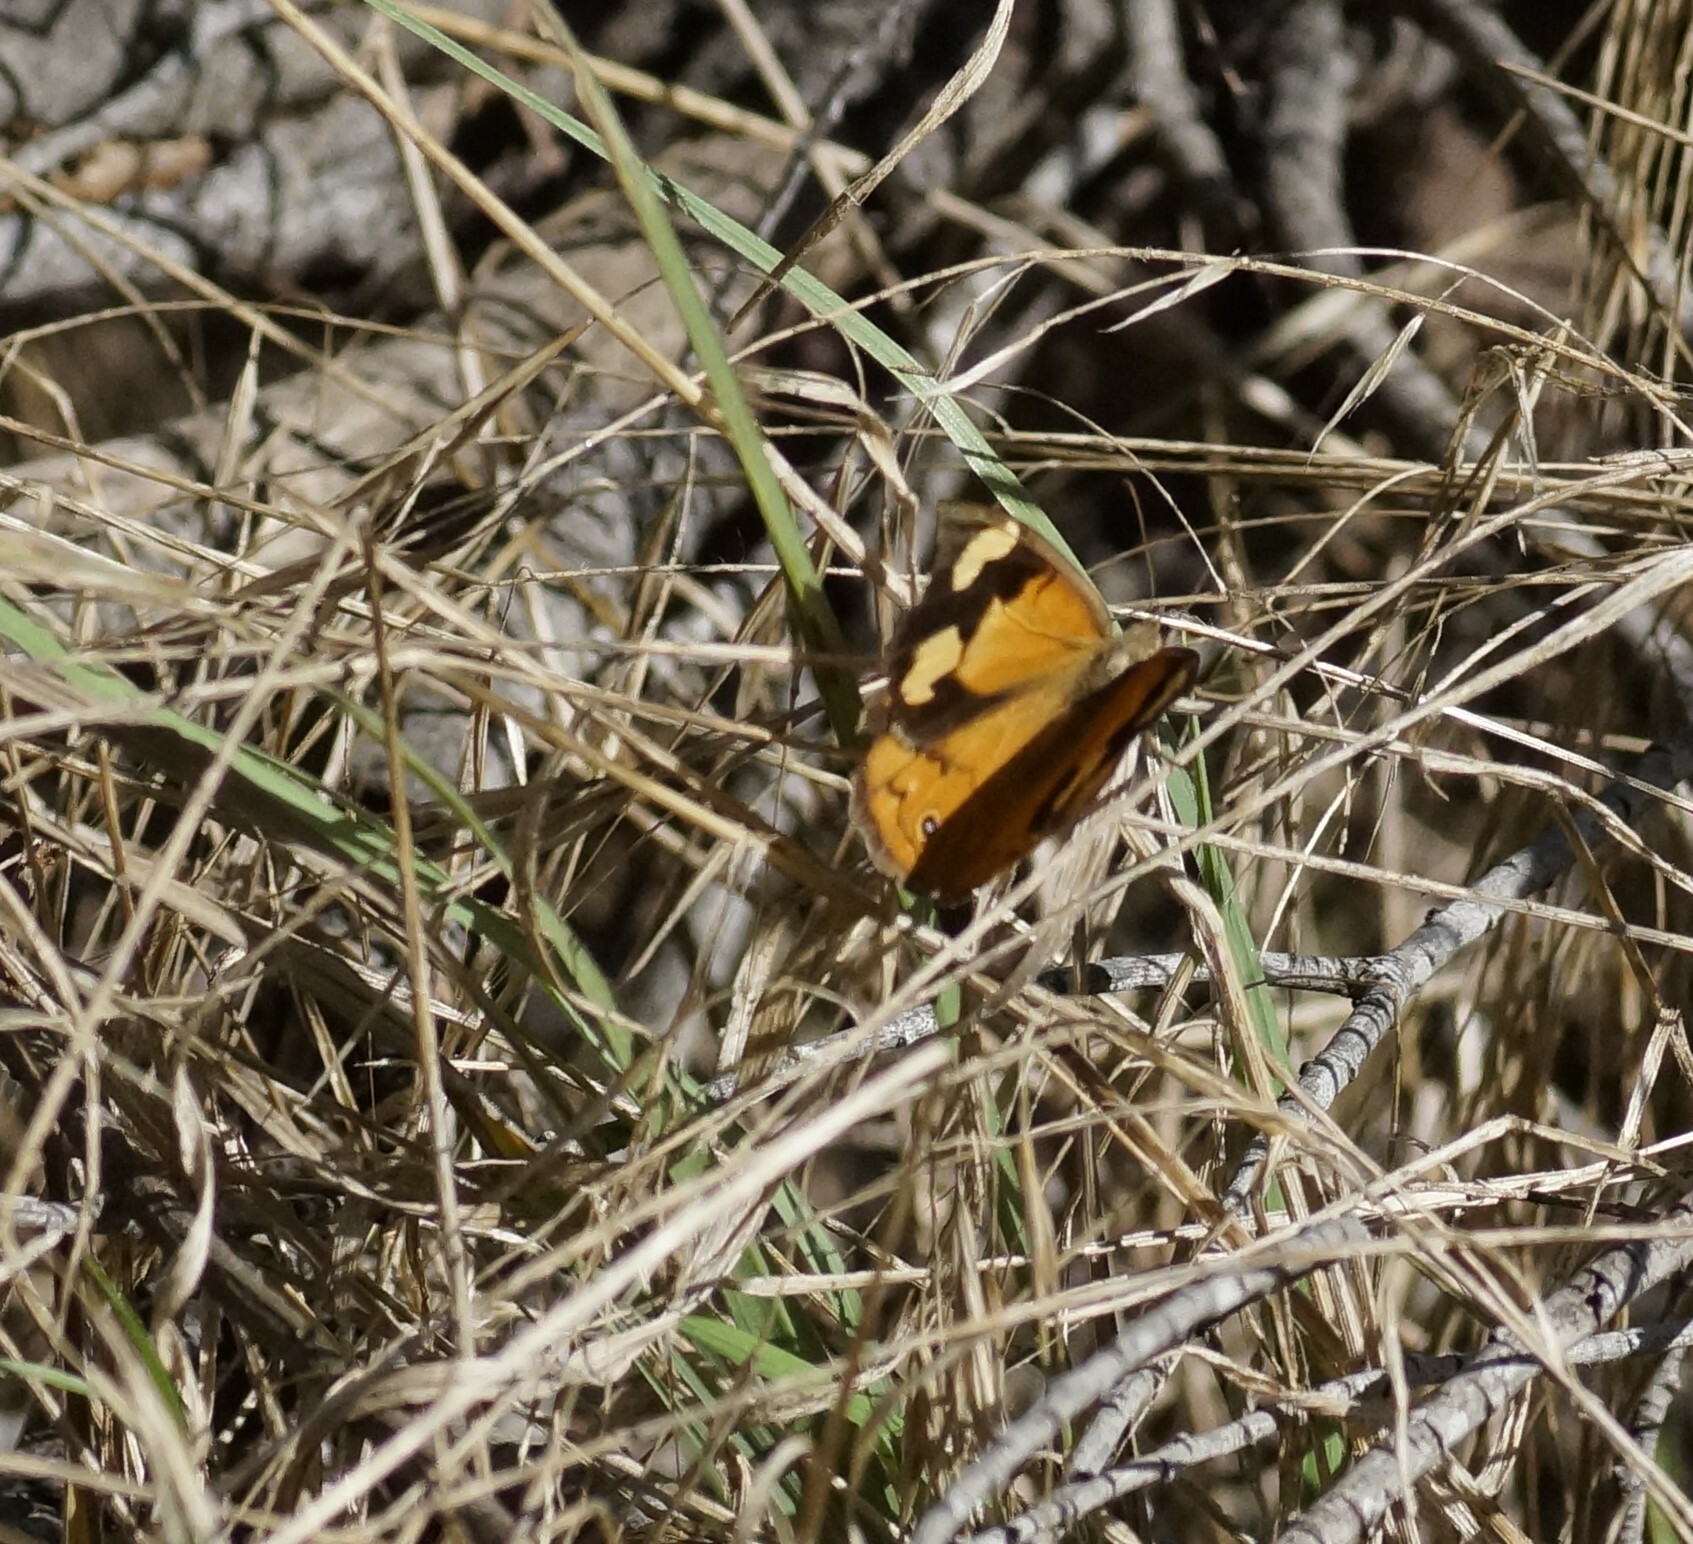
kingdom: Animalia
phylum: Arthropoda
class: Insecta
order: Lepidoptera
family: Nymphalidae
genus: Heteronympha
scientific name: Heteronympha merope
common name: Common brown
